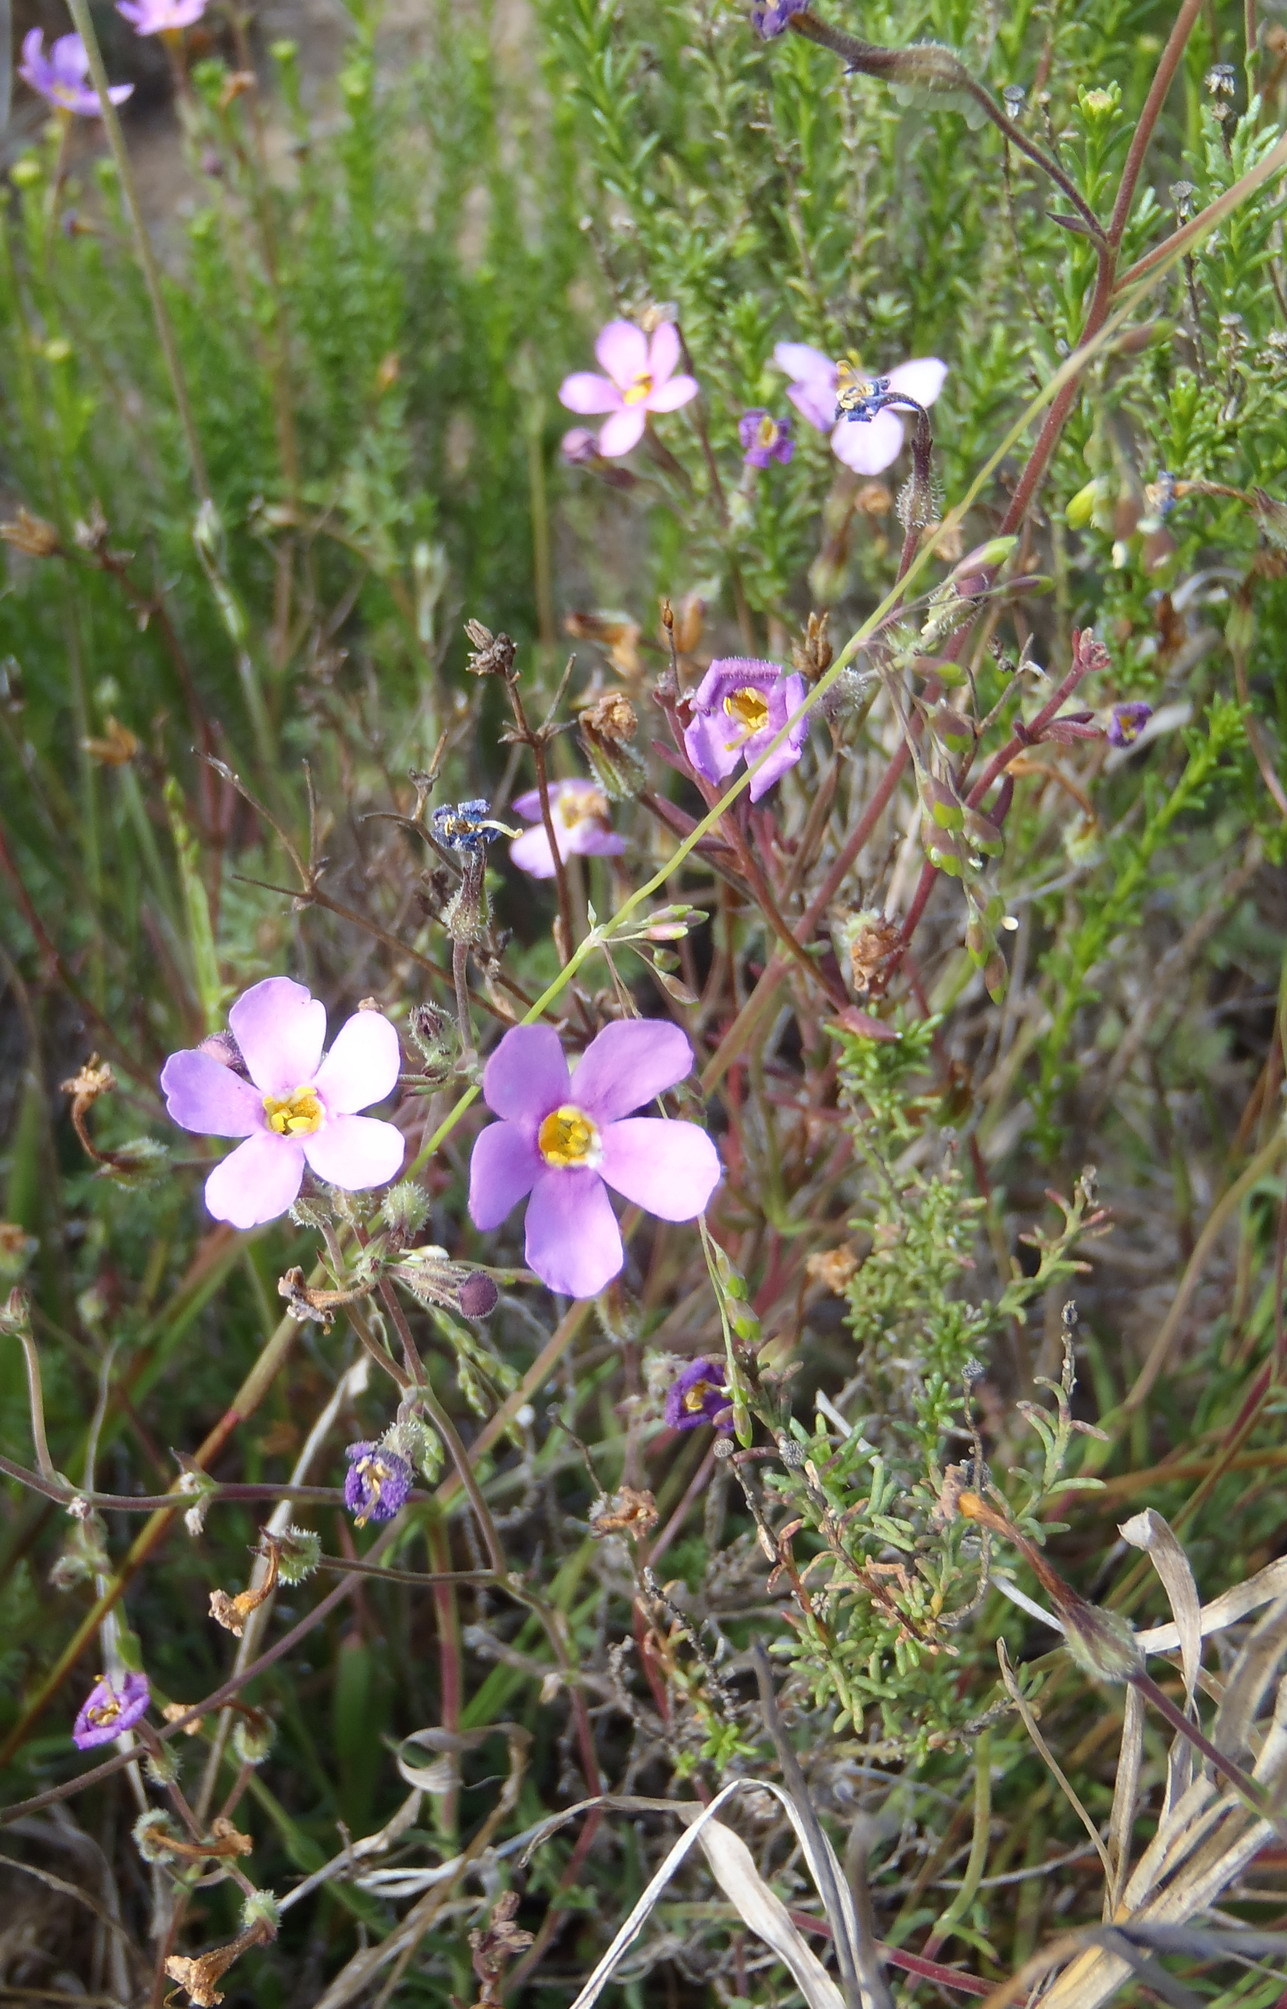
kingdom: Plantae
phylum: Tracheophyta
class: Magnoliopsida
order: Lamiales
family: Scrophulariaceae
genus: Chaenostoma
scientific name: Chaenostoma denudatum
